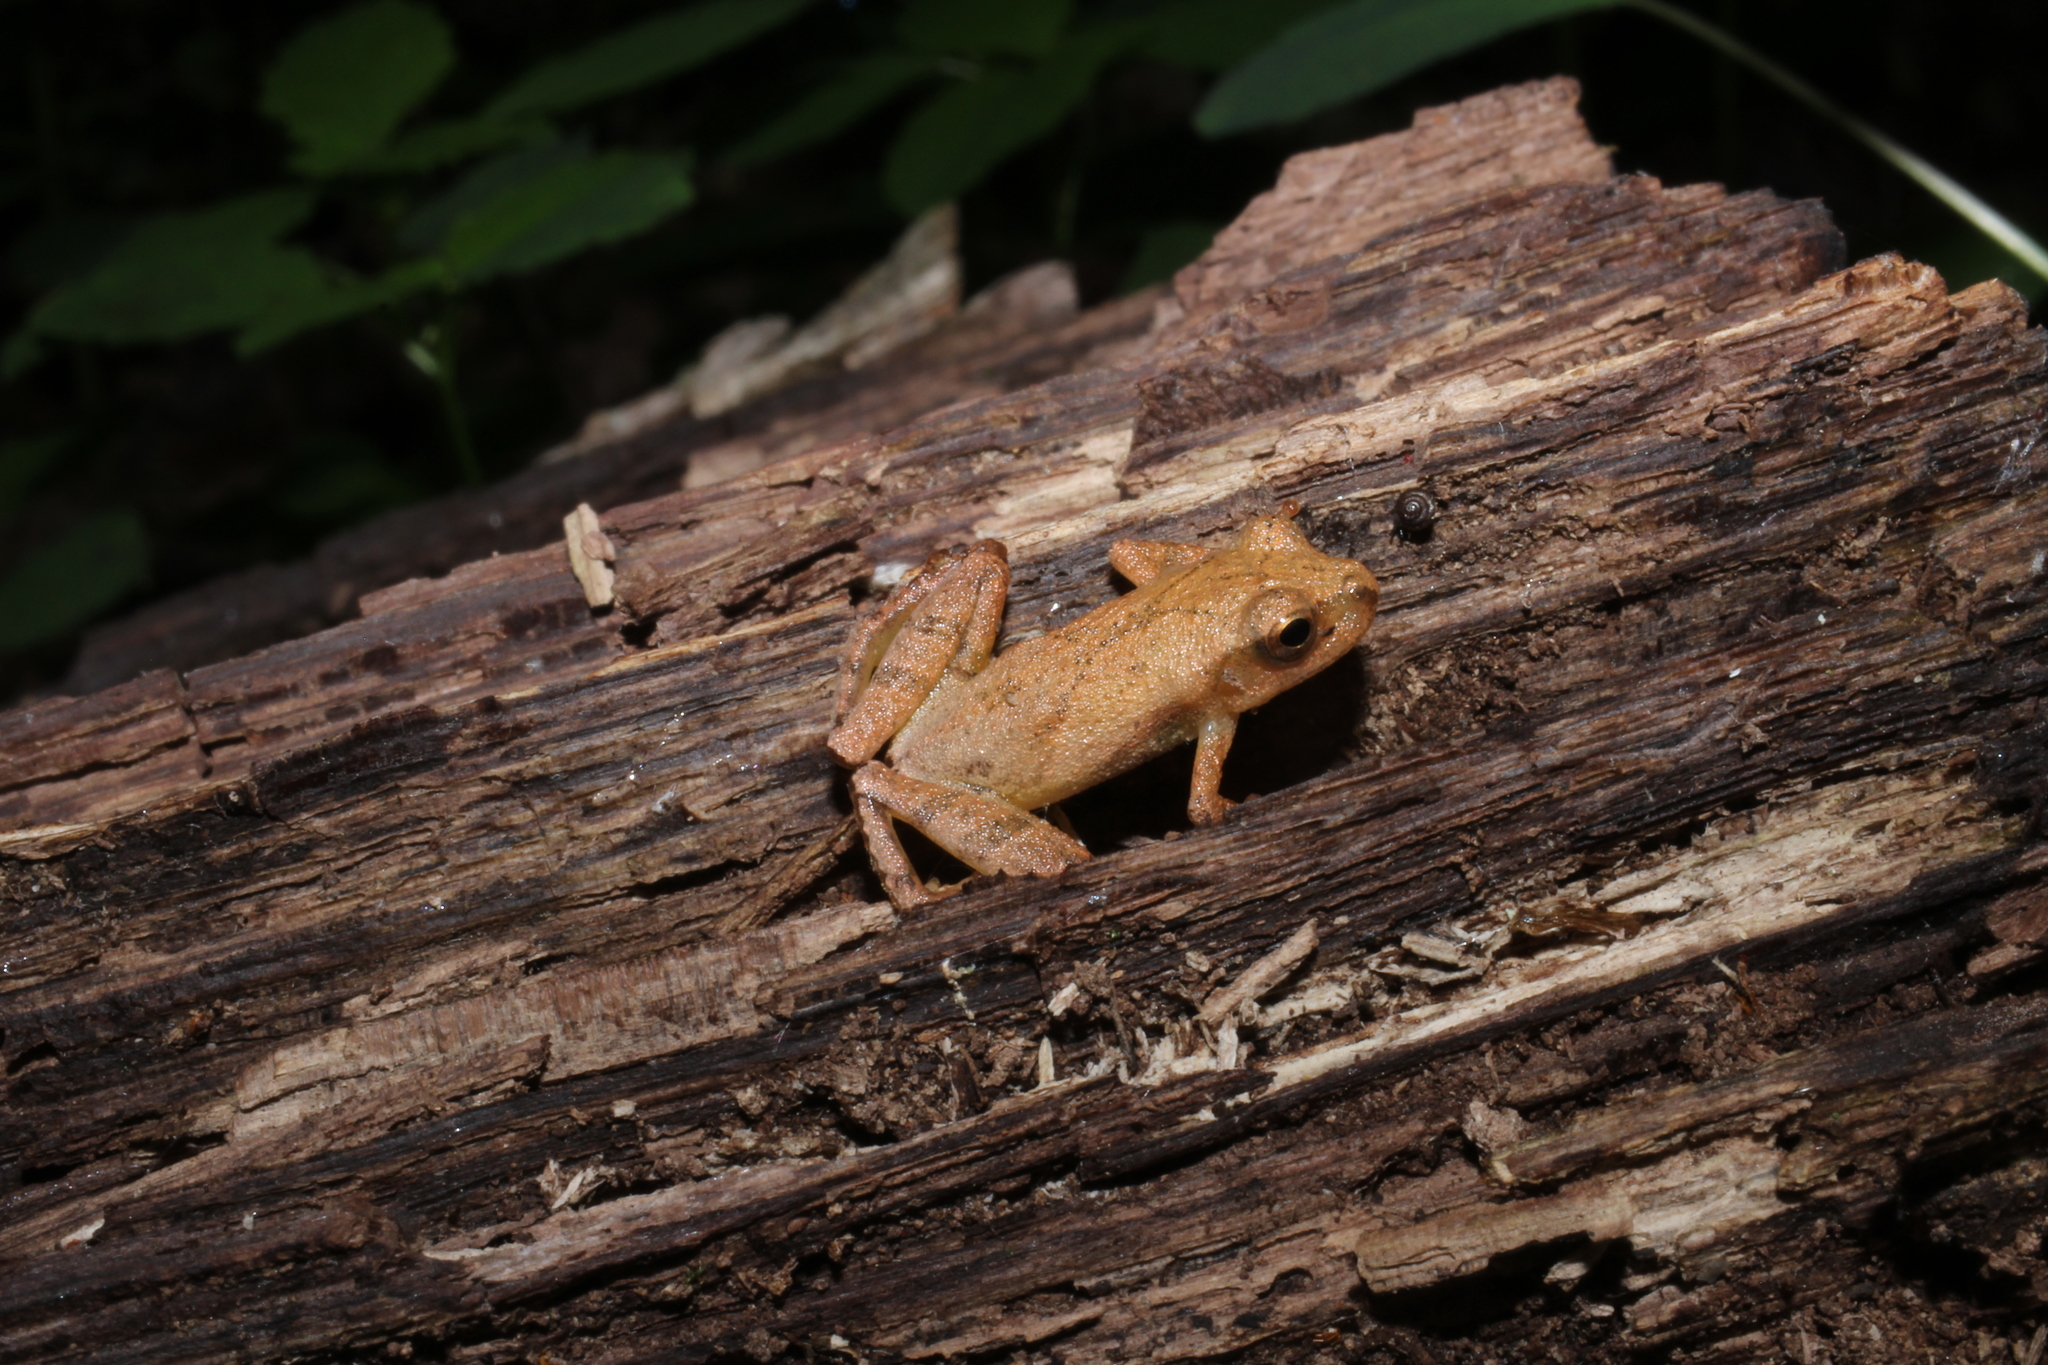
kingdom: Animalia
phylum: Chordata
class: Amphibia
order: Anura
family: Hylidae
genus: Pseudacris
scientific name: Pseudacris crucifer
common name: Spring peeper
